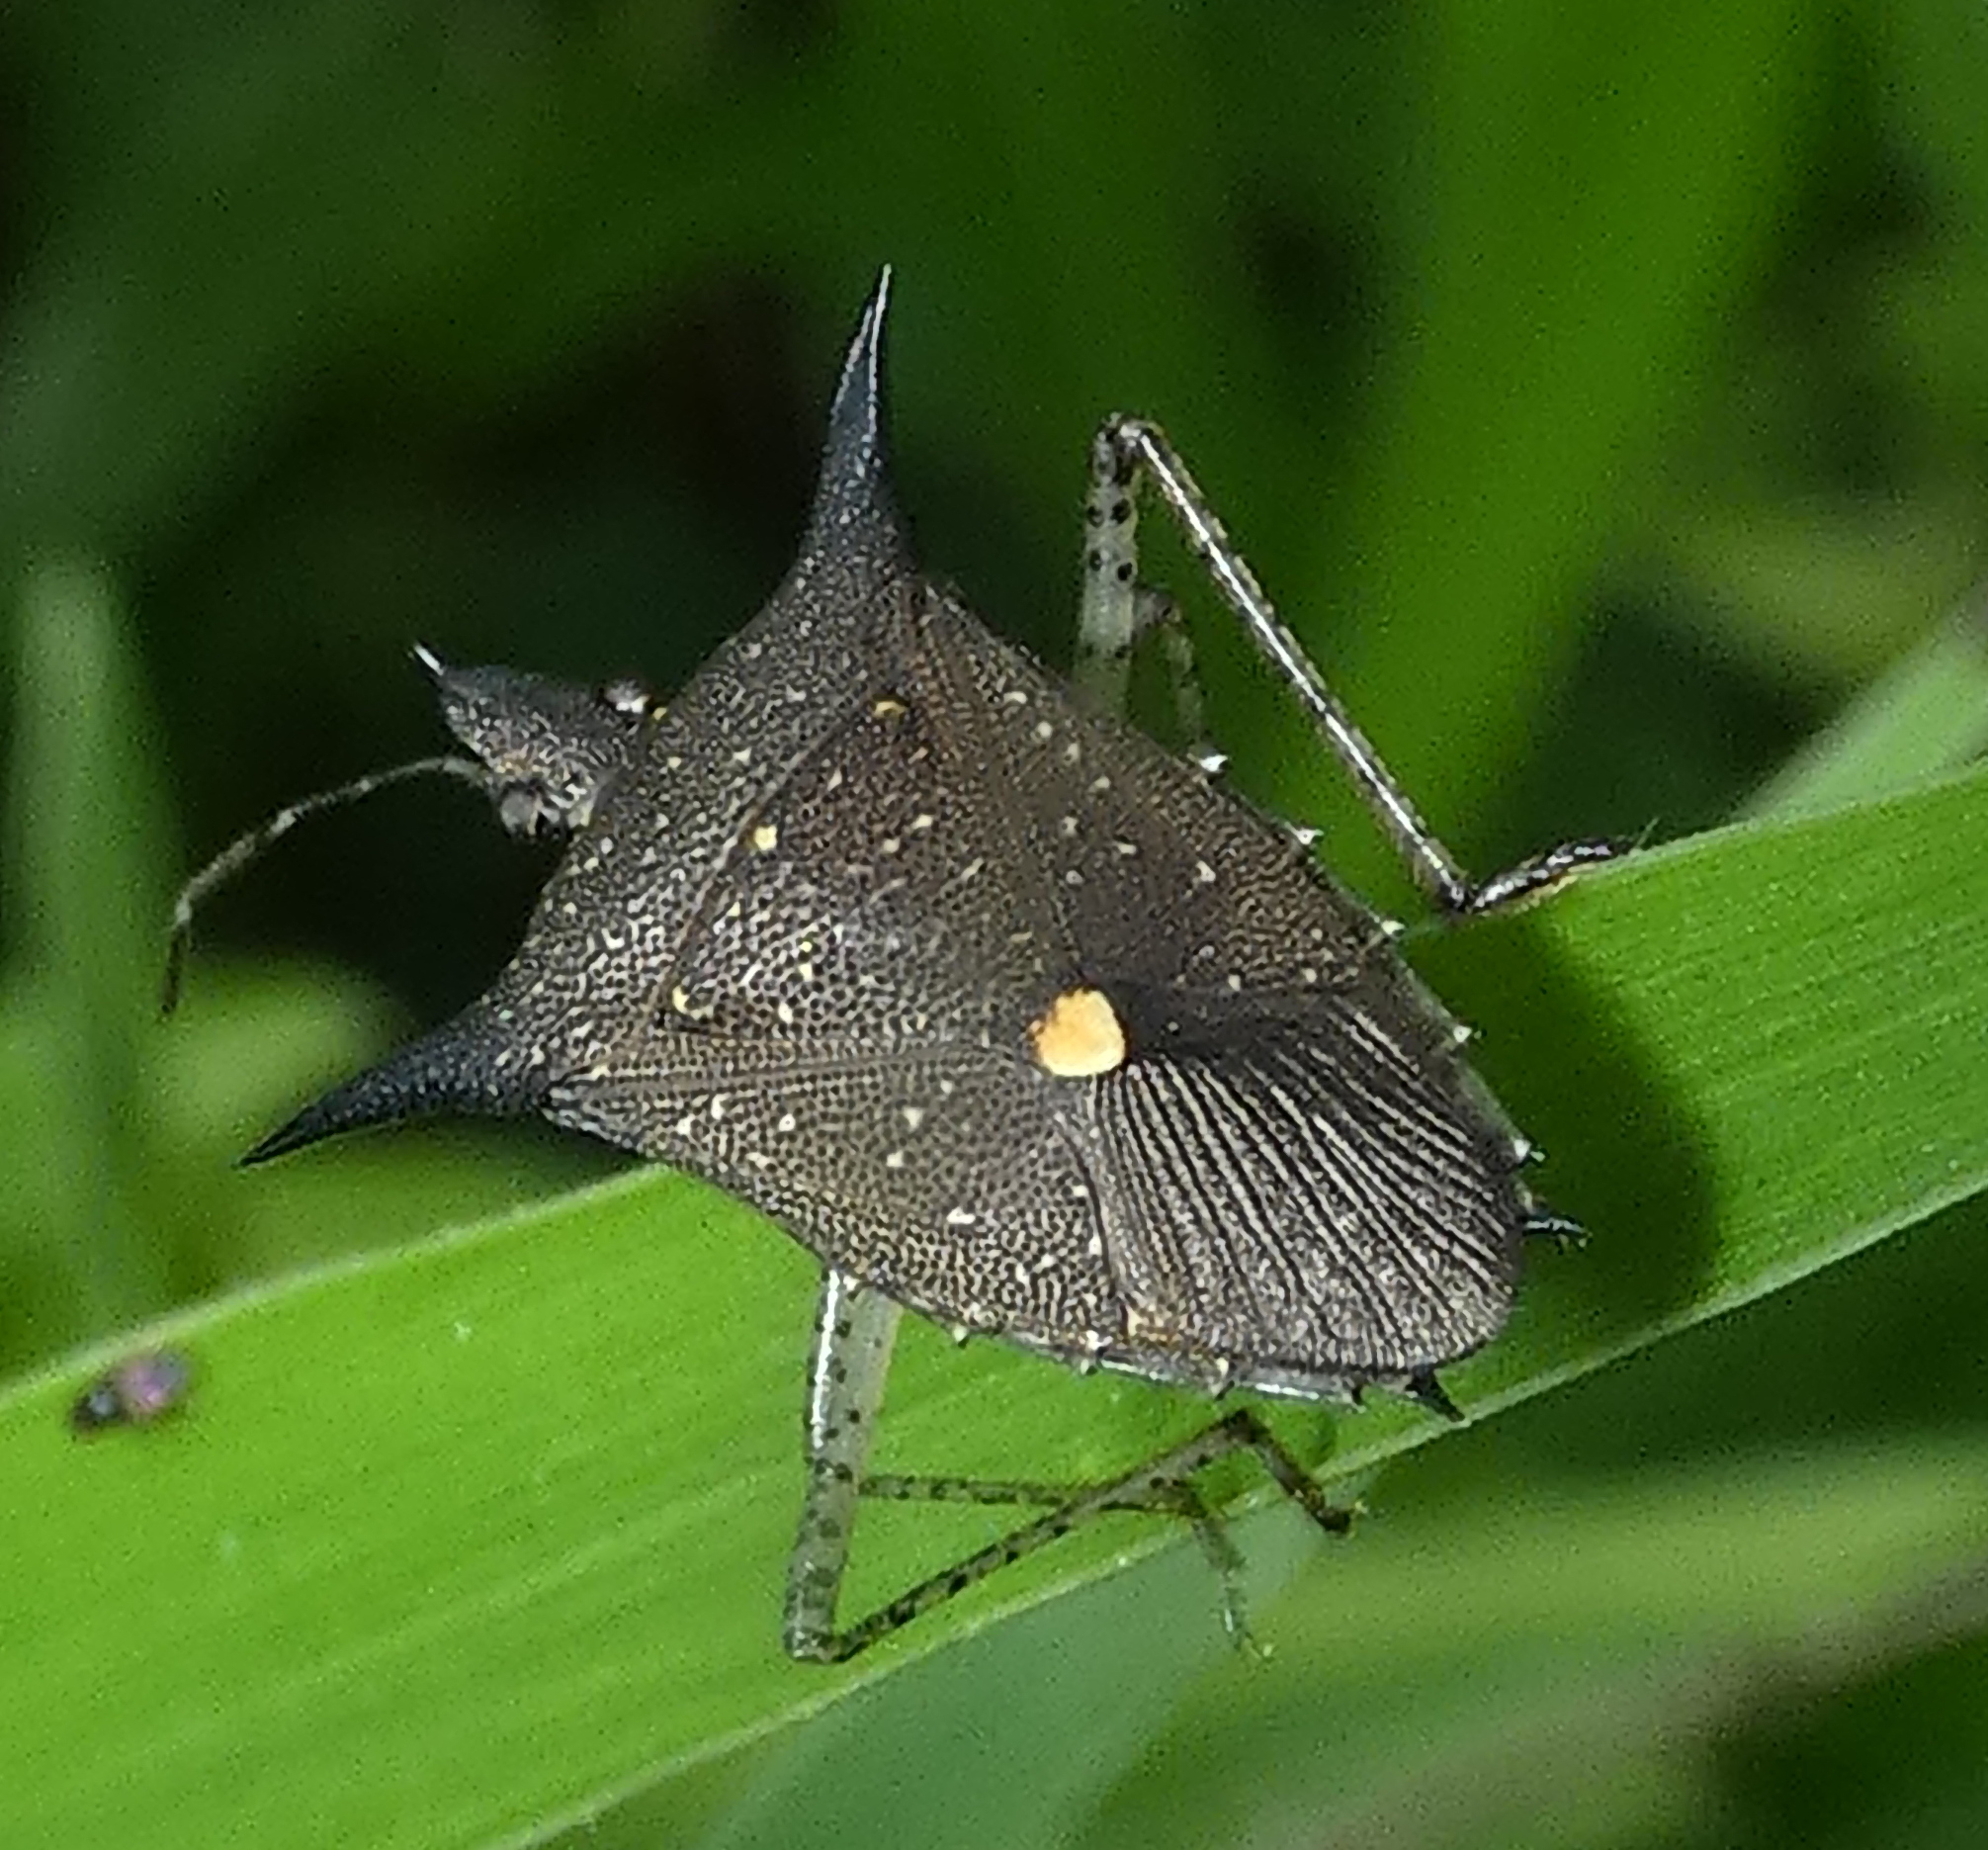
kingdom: Animalia
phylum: Arthropoda
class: Insecta
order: Hemiptera
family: Pentatomidae
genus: Proxys
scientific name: Proxys albopunctulatus
